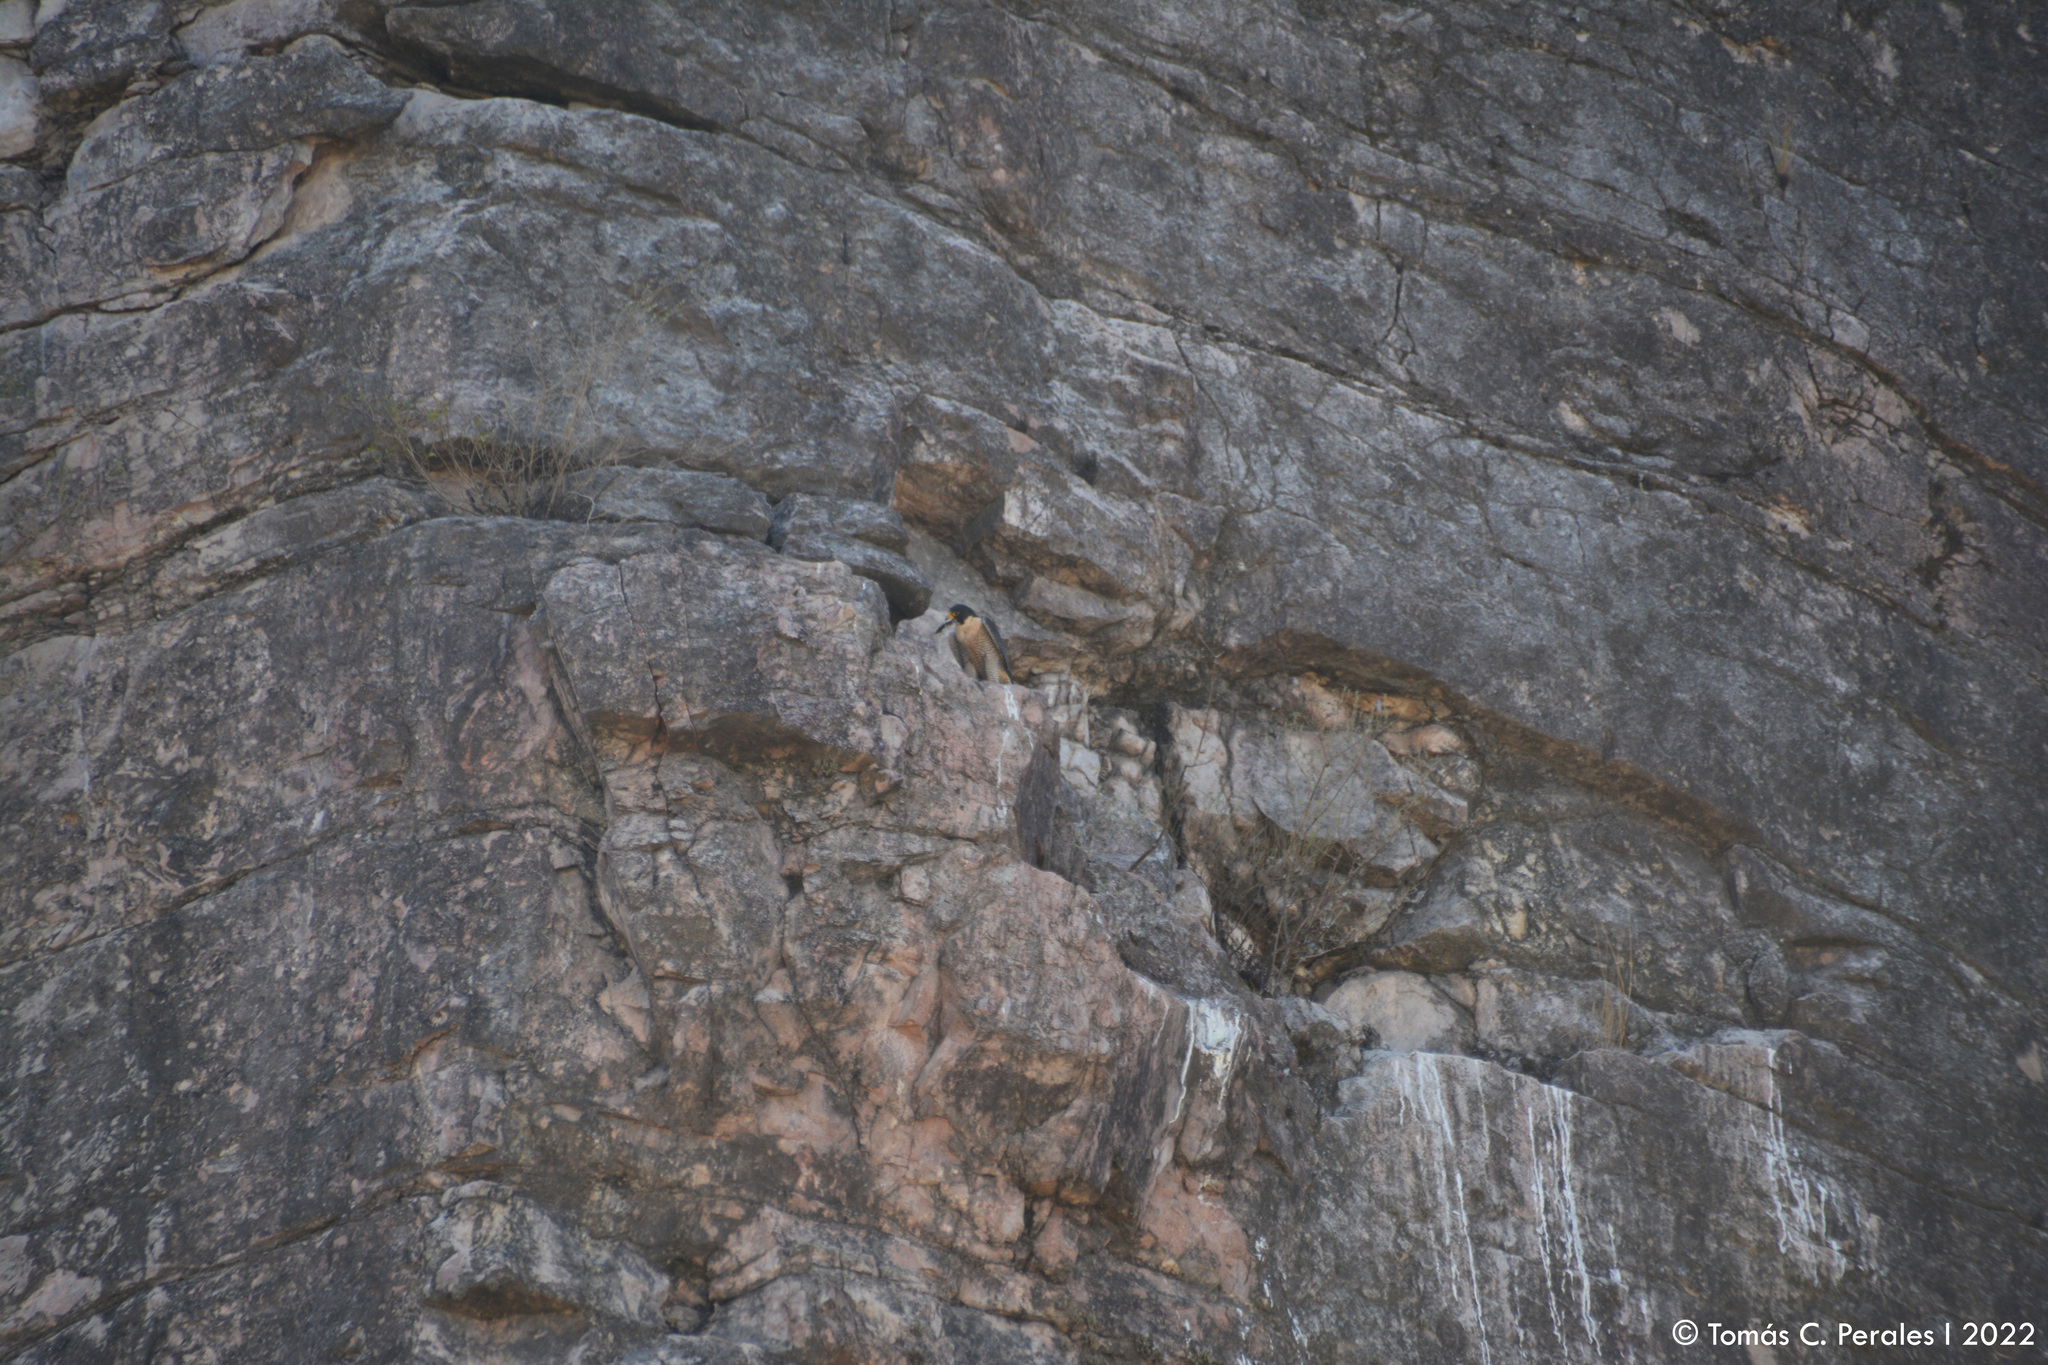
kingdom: Animalia
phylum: Chordata
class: Aves
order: Falconiformes
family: Falconidae
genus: Falco
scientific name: Falco peregrinus
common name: Peregrine falcon
